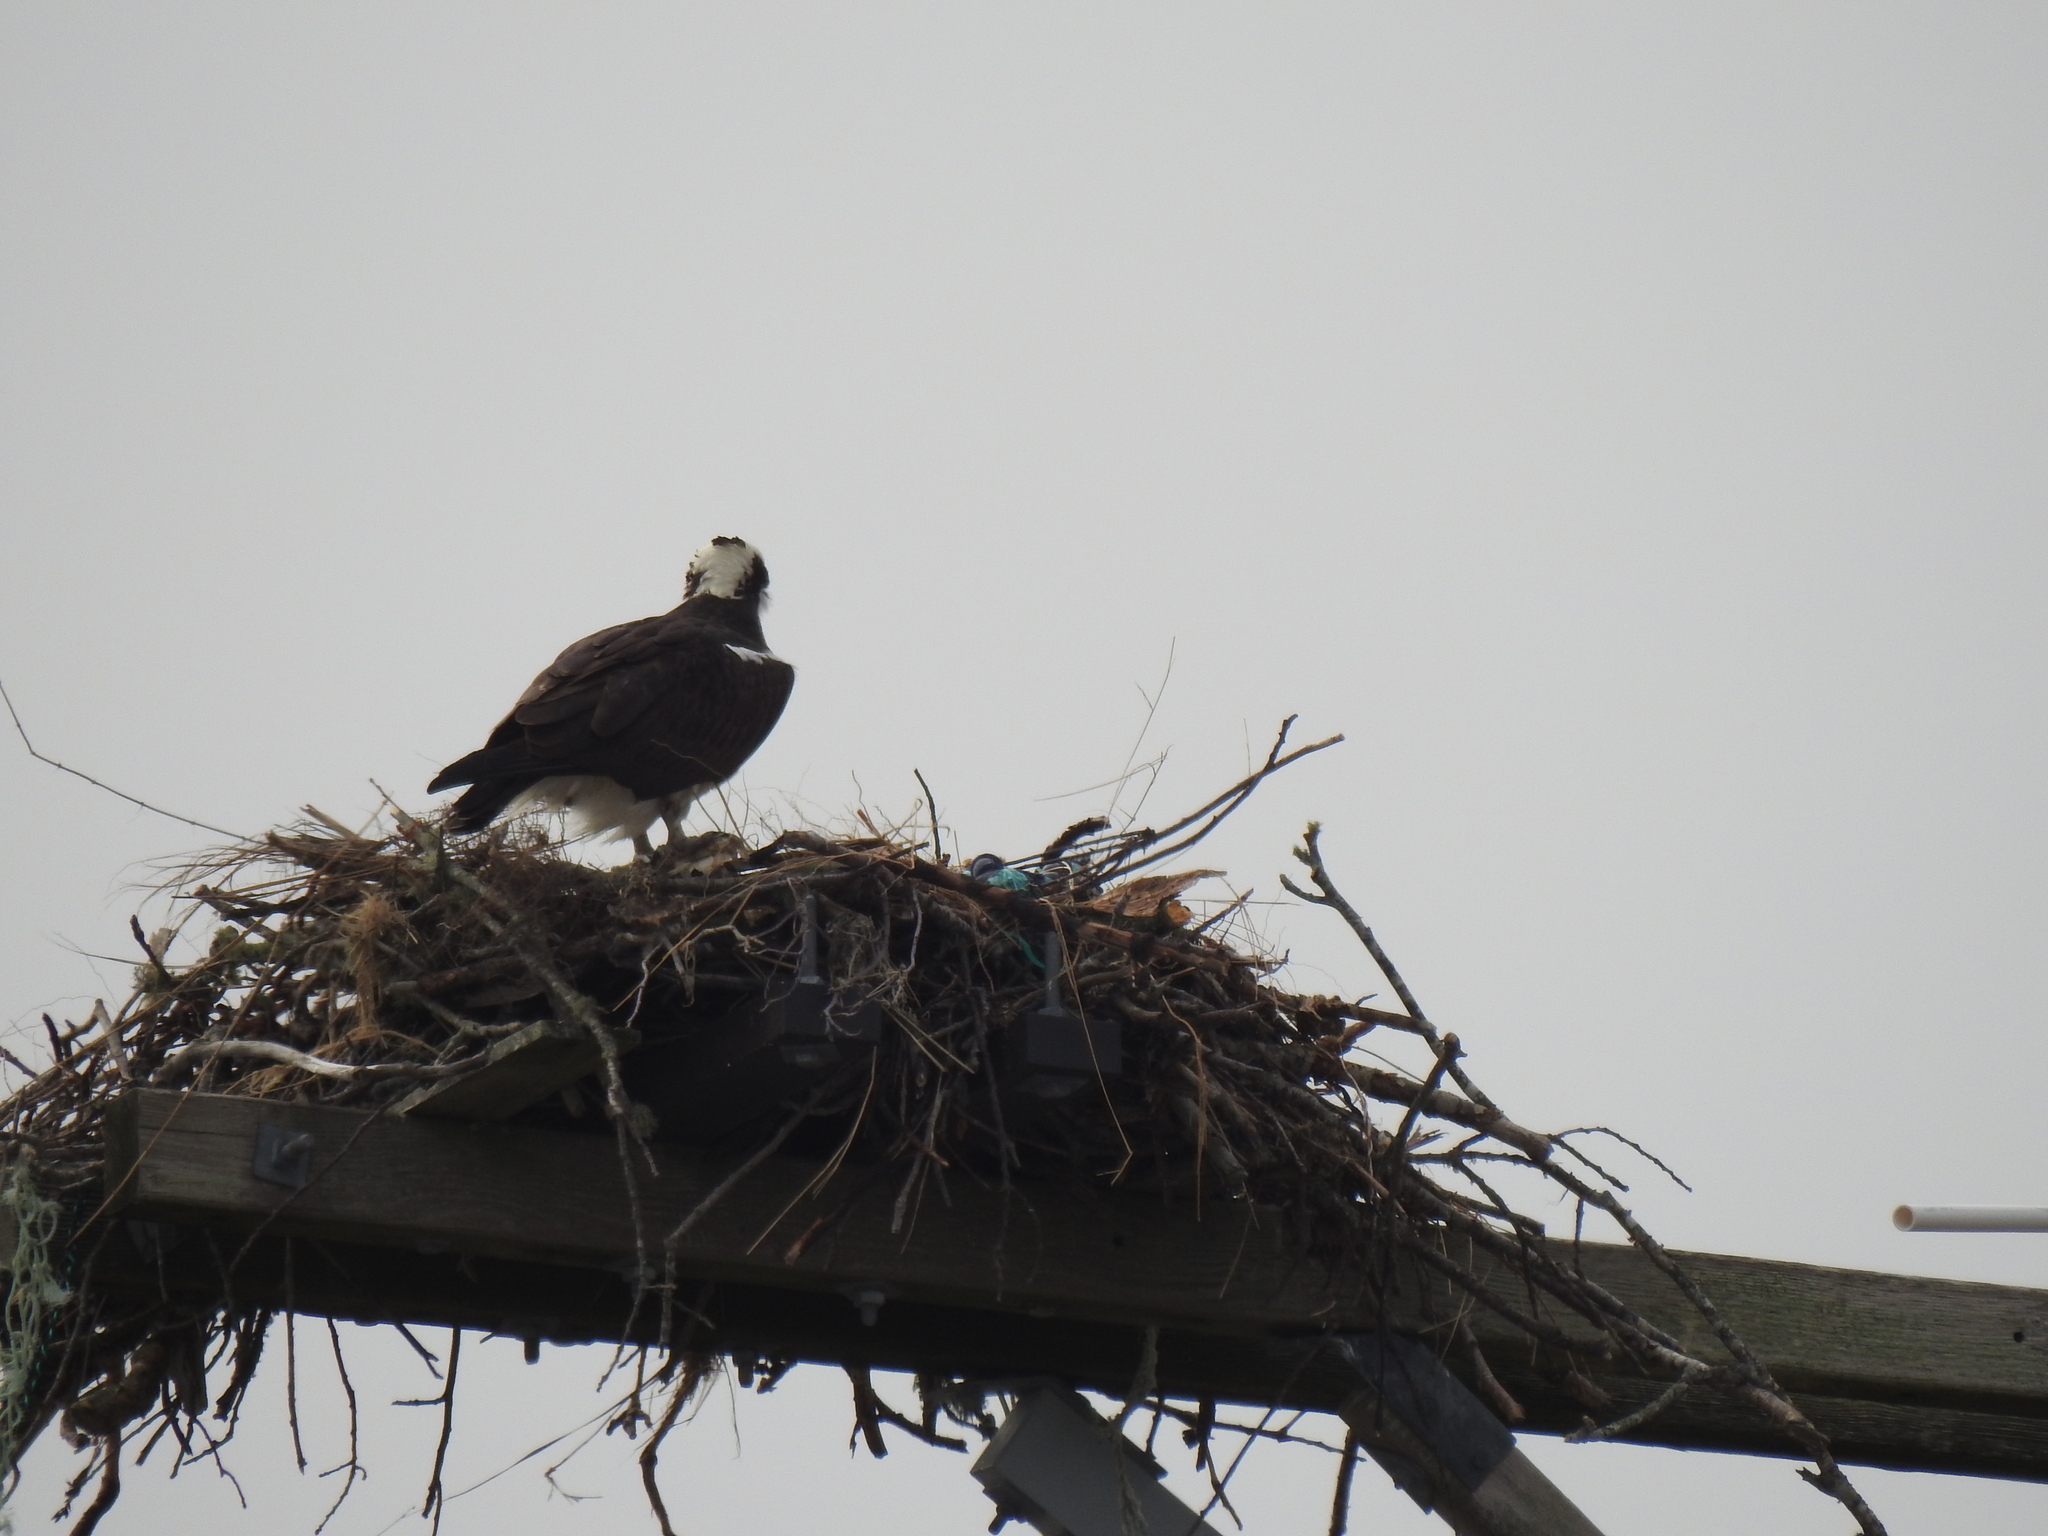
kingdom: Animalia
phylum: Chordata
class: Aves
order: Accipitriformes
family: Pandionidae
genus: Pandion
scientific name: Pandion haliaetus
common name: Osprey
